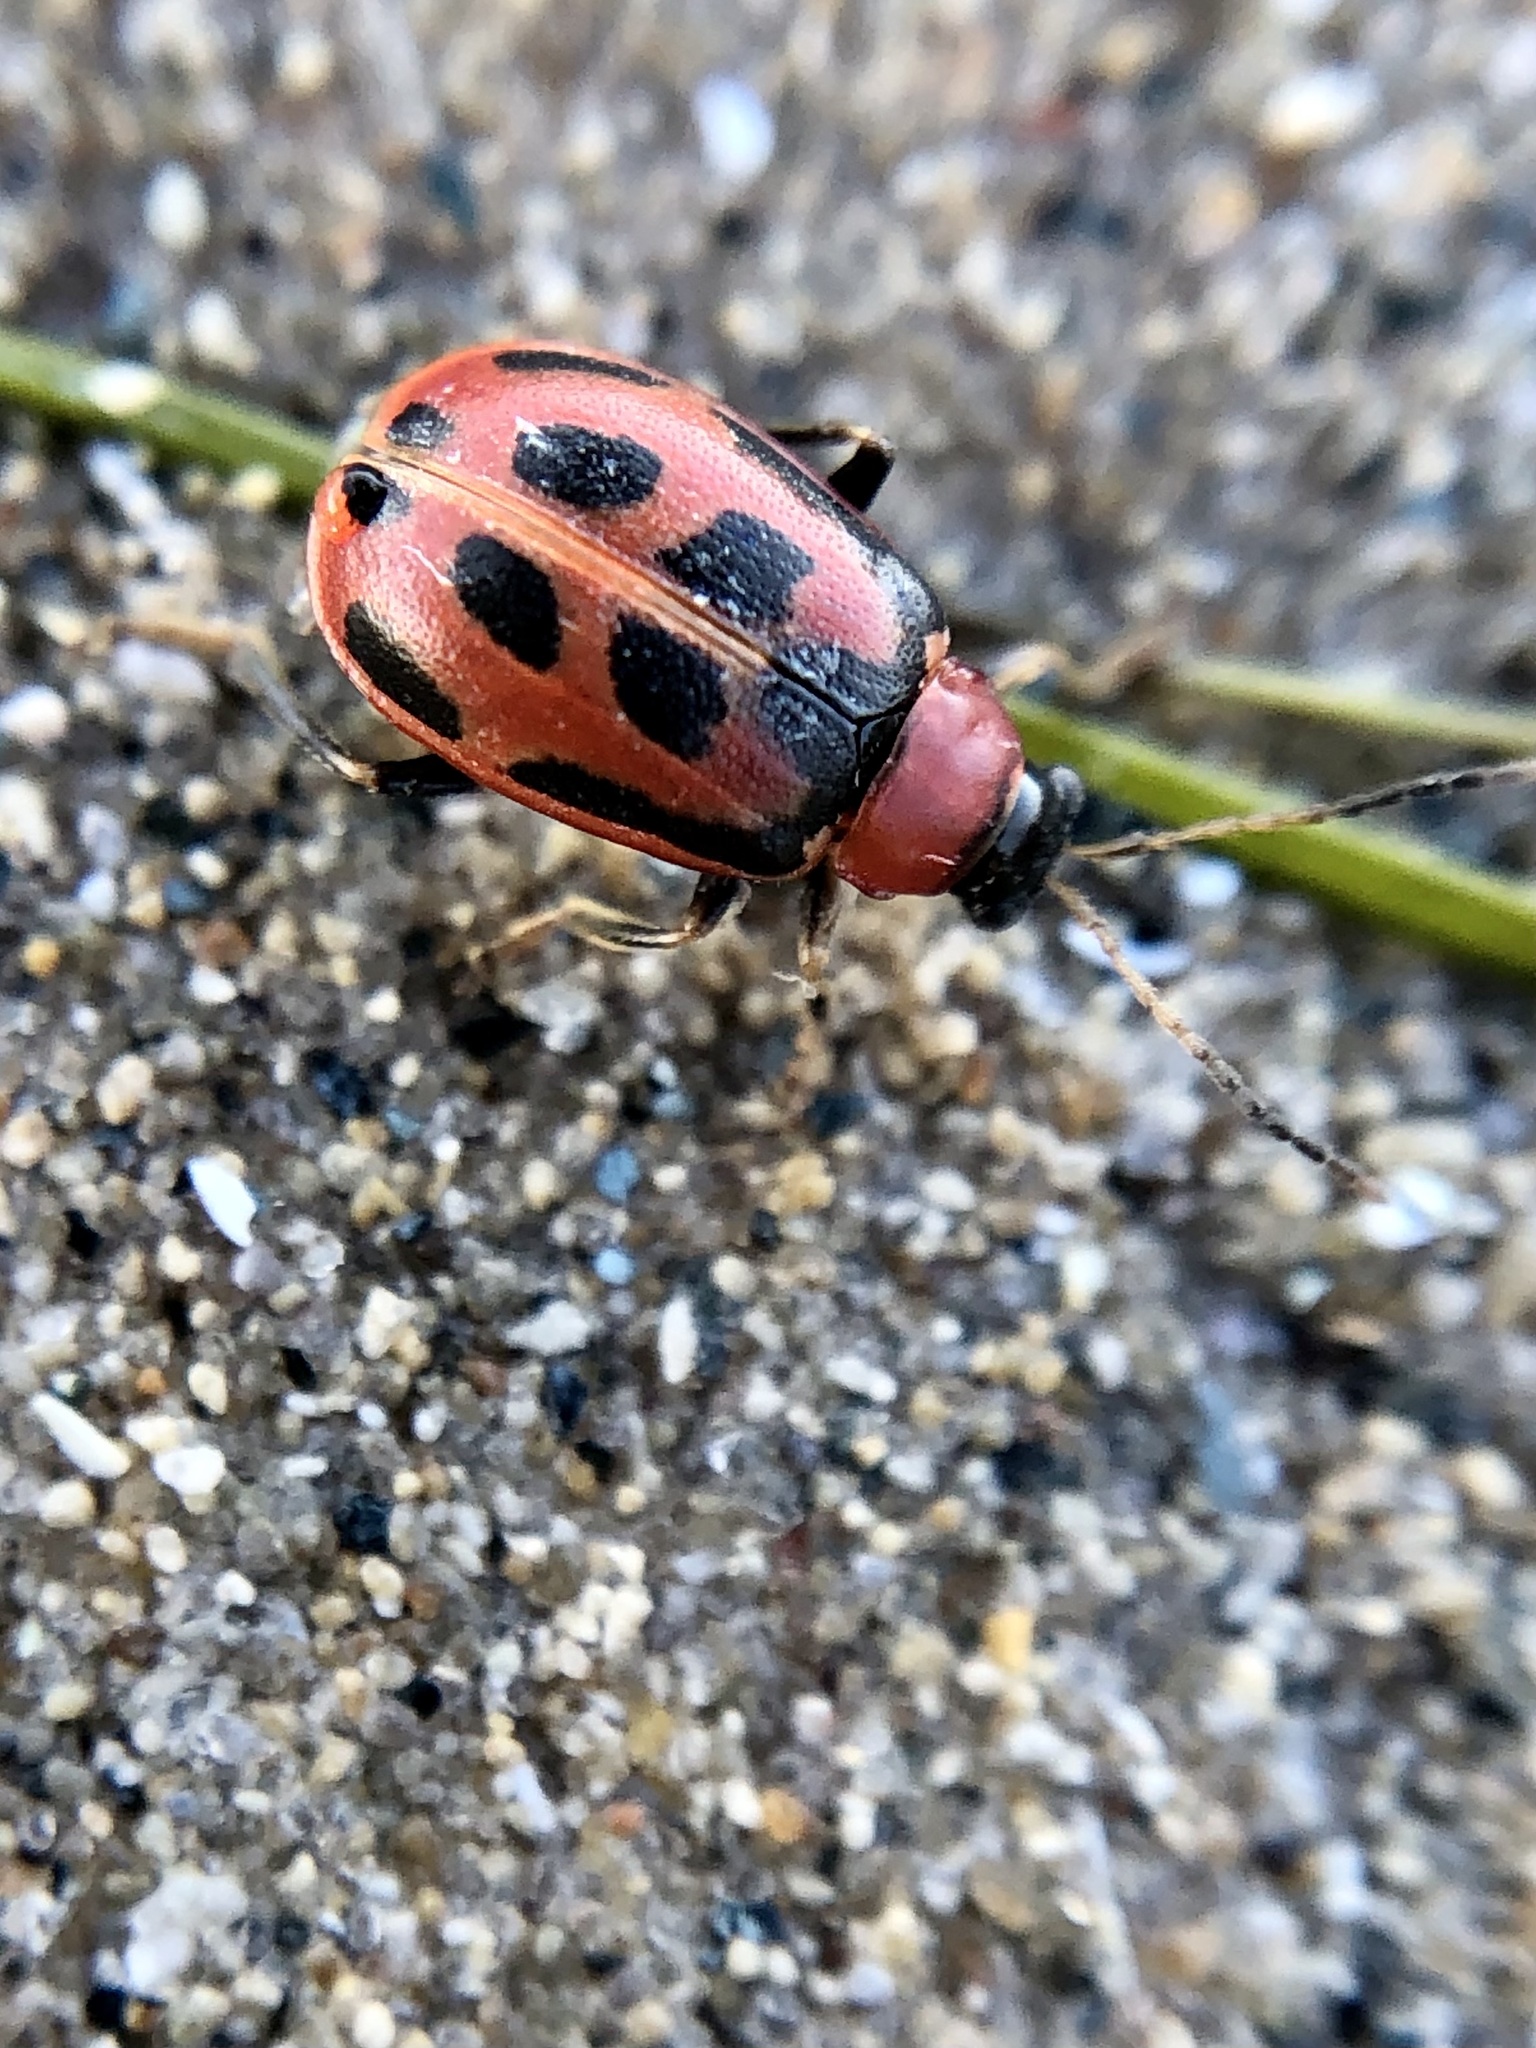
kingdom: Animalia
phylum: Arthropoda
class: Insecta
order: Coleoptera
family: Chrysomelidae
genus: Cerotoma
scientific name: Cerotoma trifurcata
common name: Bean leaf beetle
